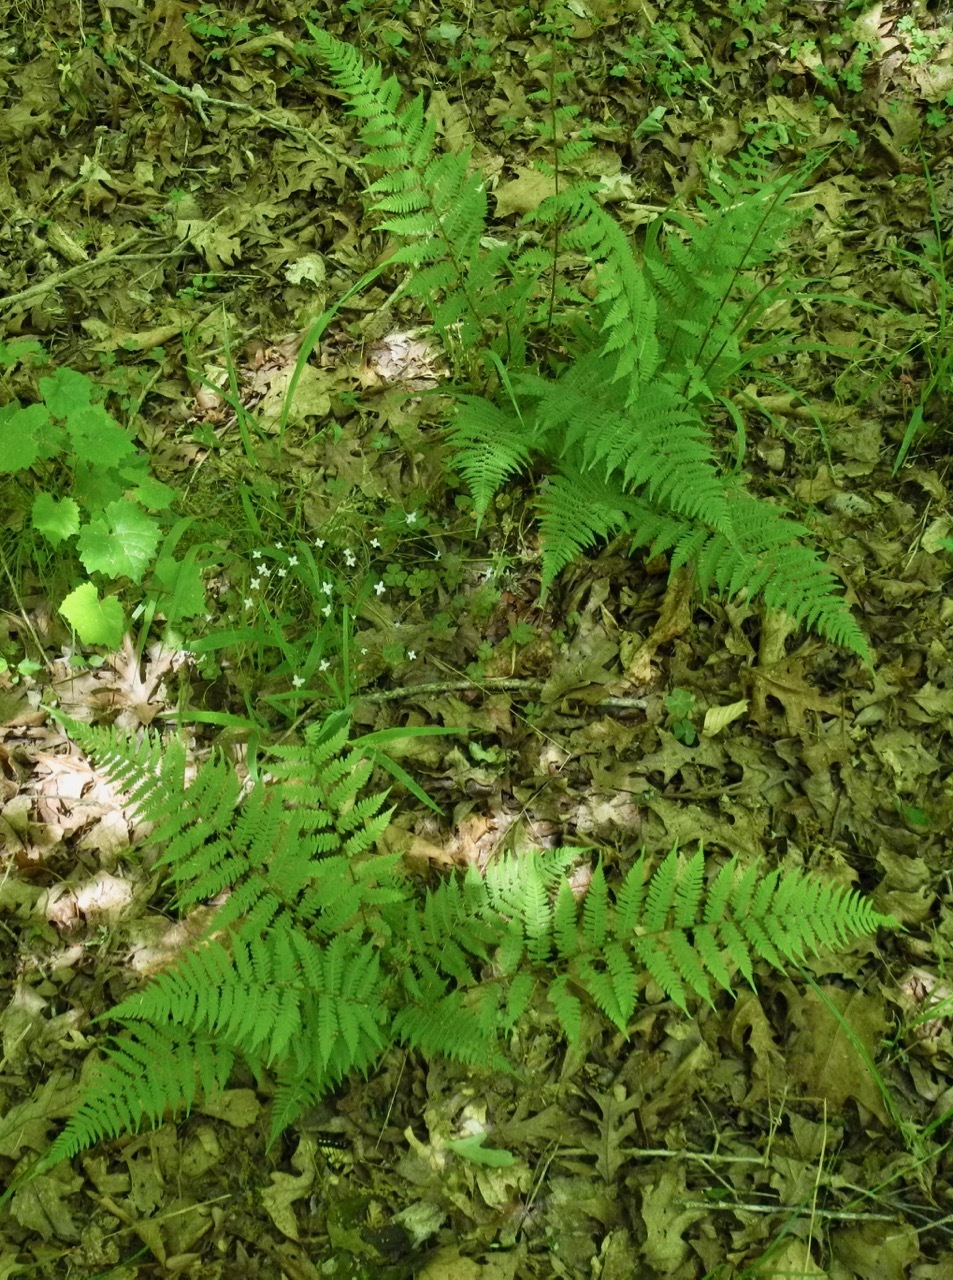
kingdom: Plantae
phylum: Tracheophyta
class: Polypodiopsida
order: Polypodiales
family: Athyriaceae
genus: Athyrium
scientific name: Athyrium asplenioides
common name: Southern lady fern
